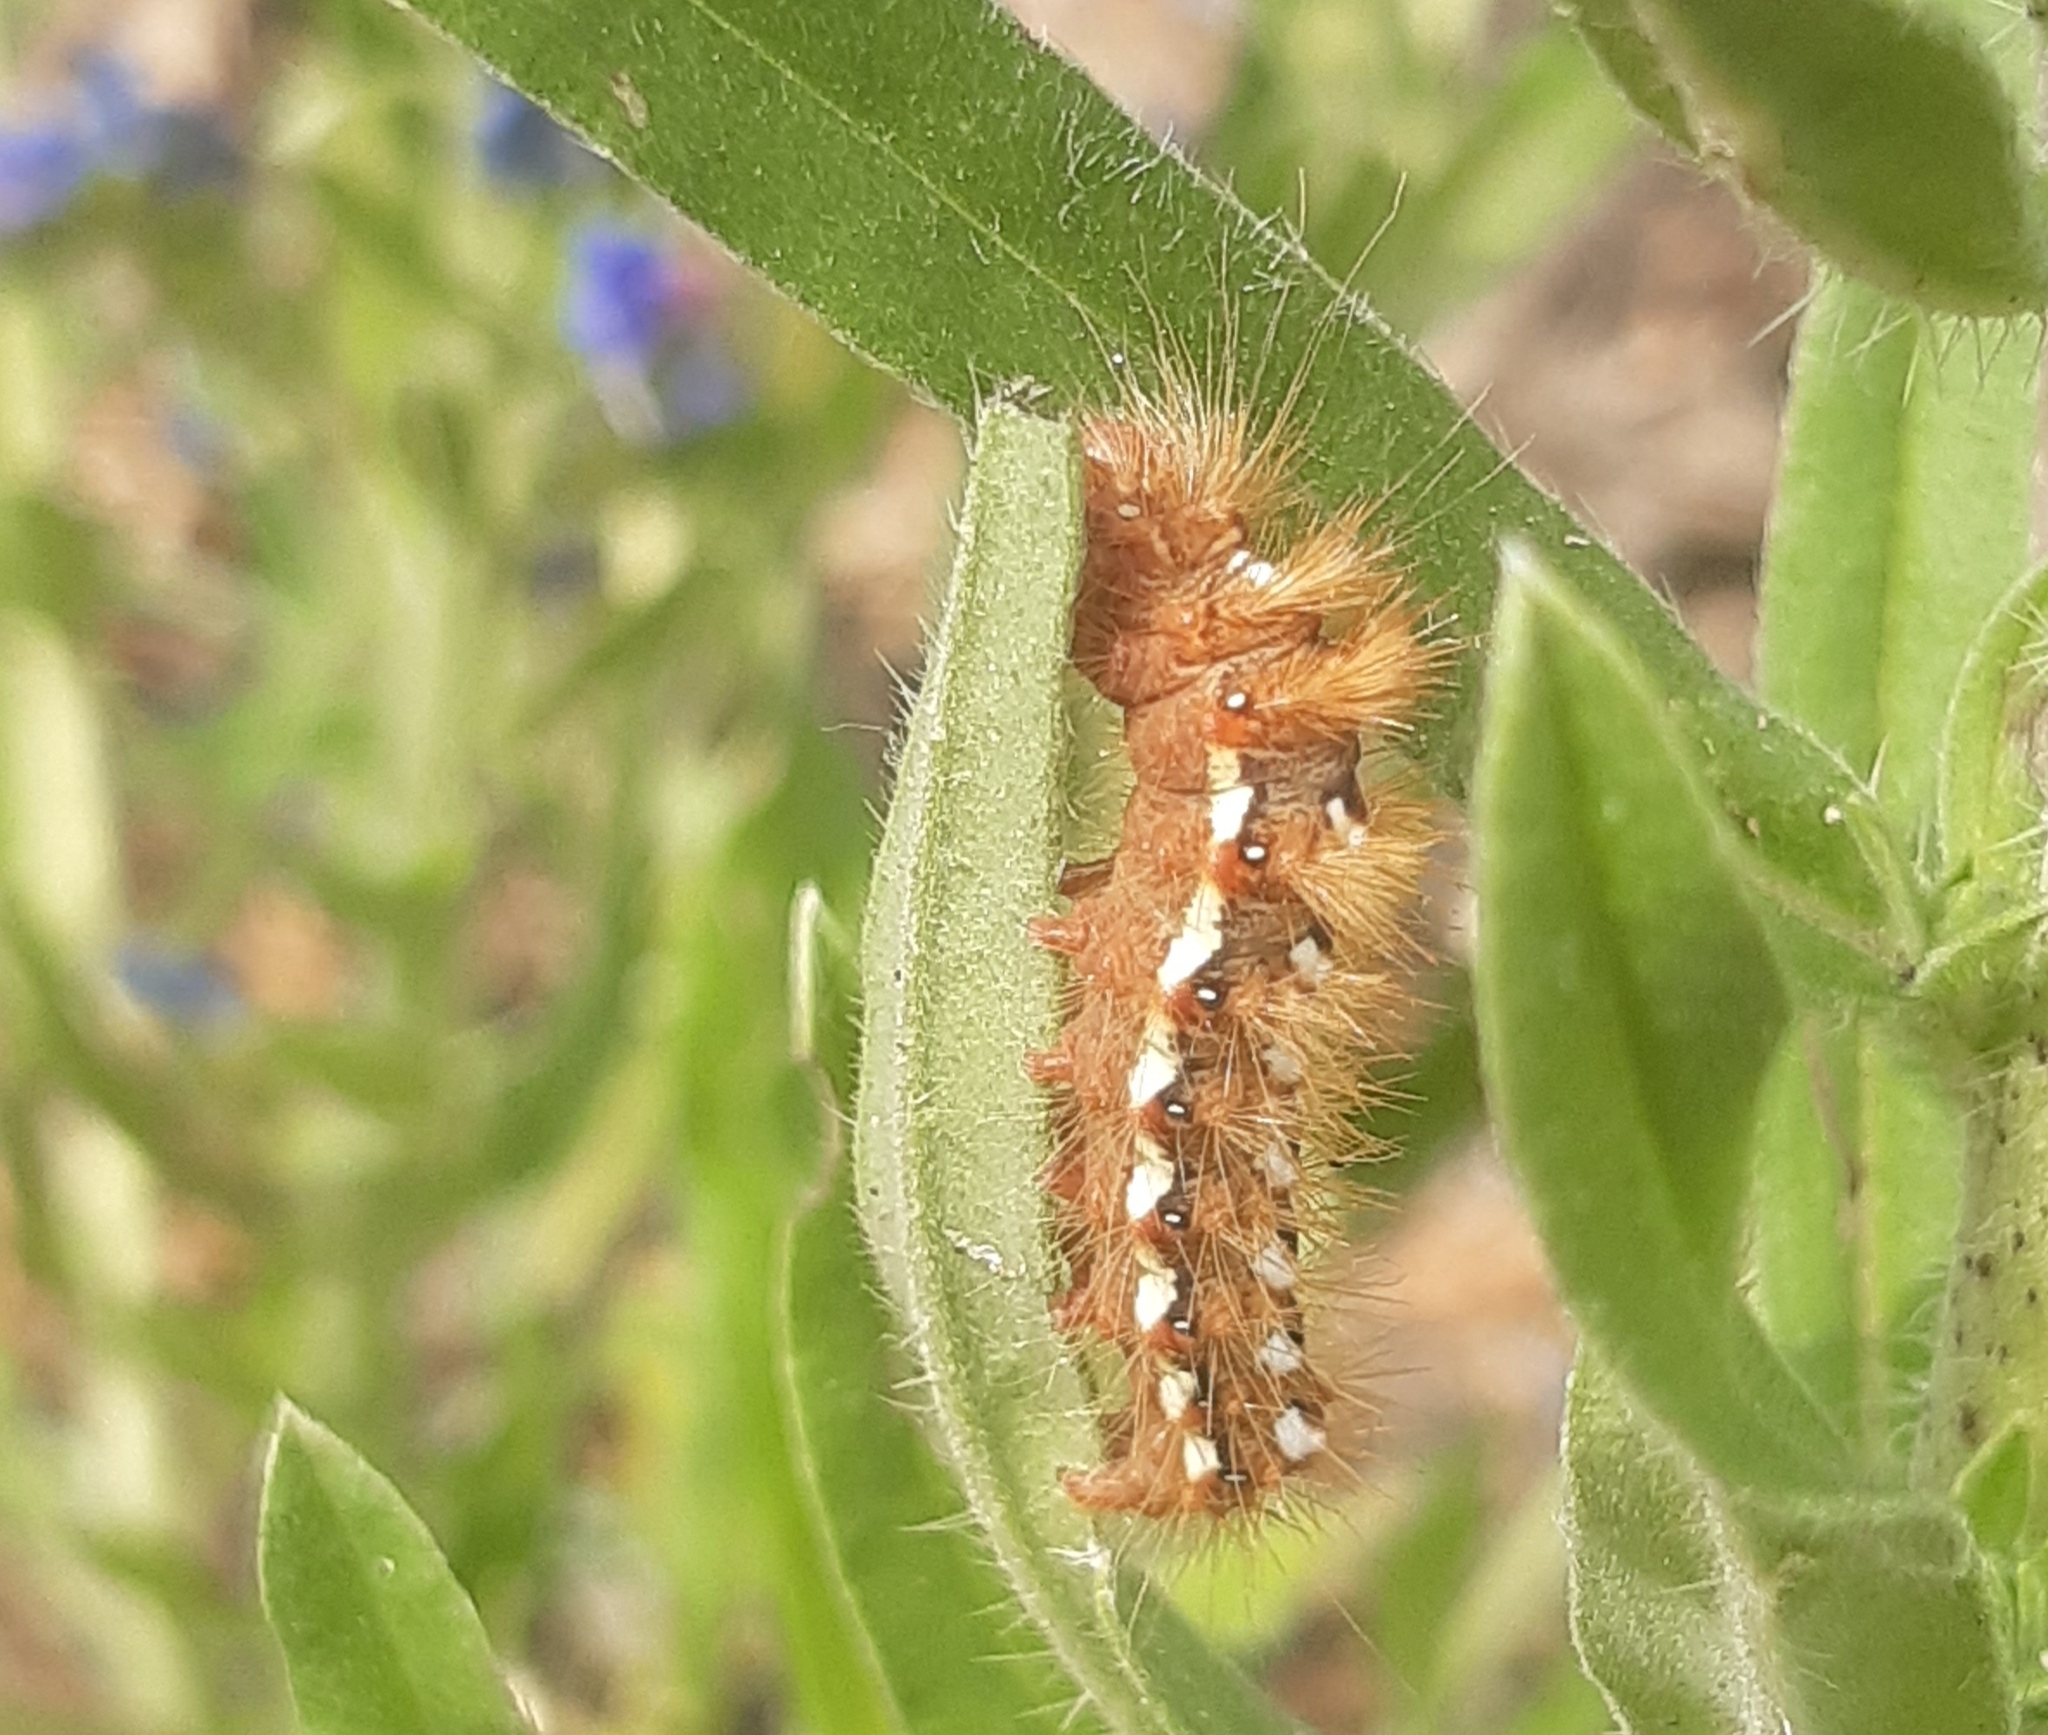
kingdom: Animalia
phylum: Arthropoda
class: Insecta
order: Lepidoptera
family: Noctuidae
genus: Acronicta
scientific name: Acronicta rumicis
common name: Knot grass
